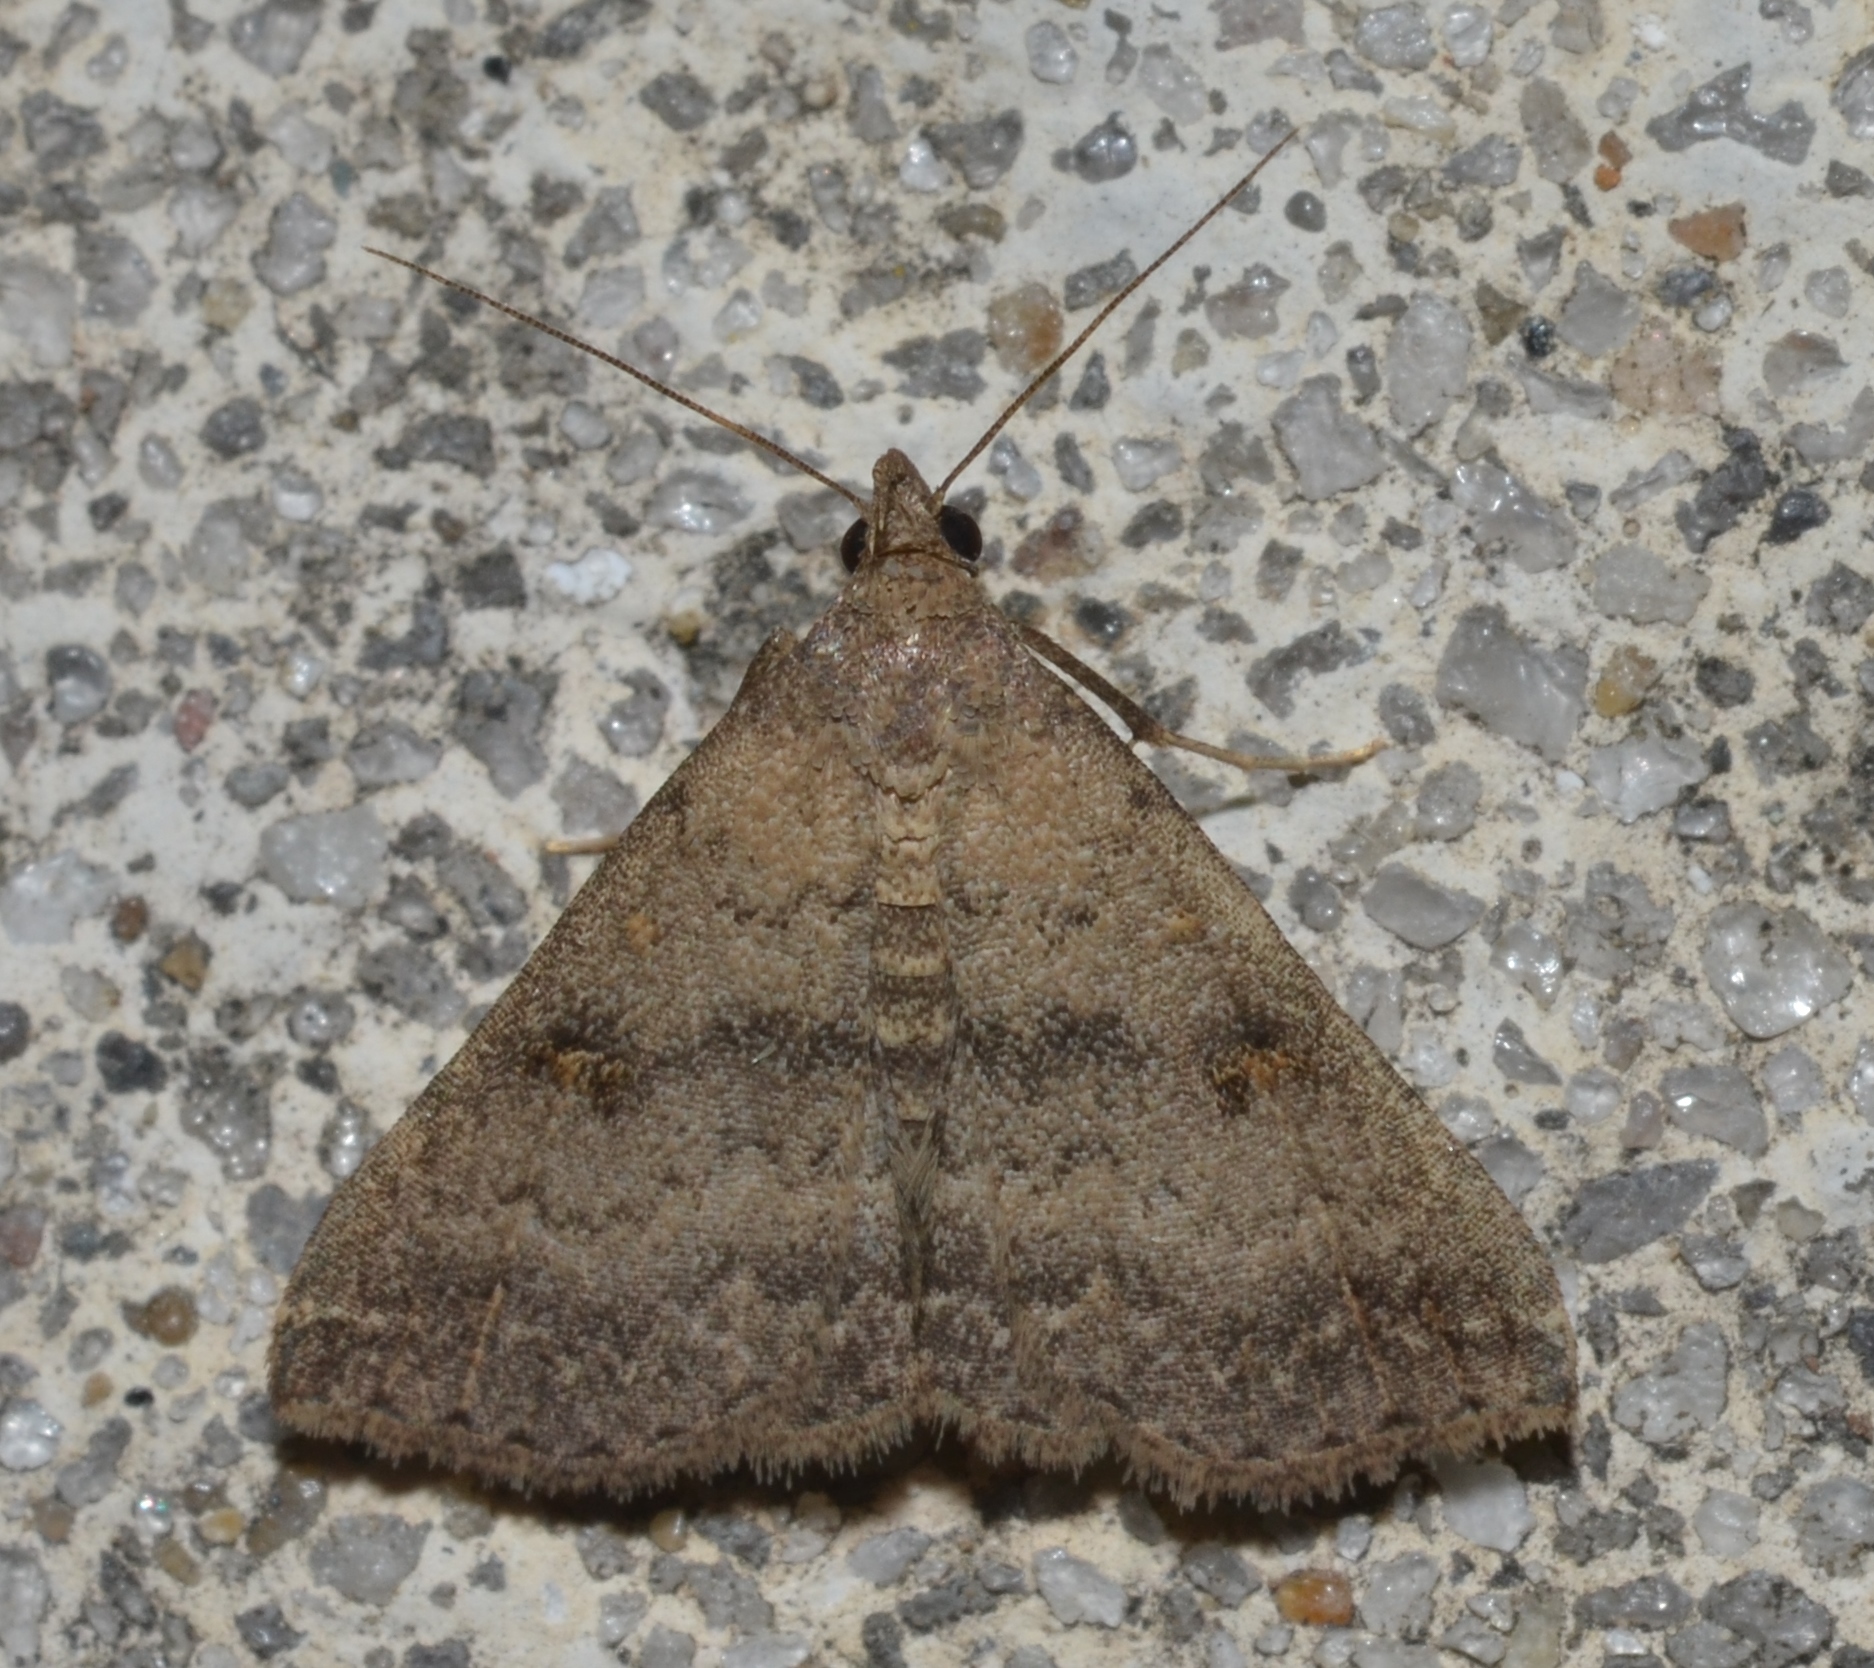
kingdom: Animalia
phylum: Arthropoda
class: Insecta
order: Lepidoptera
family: Erebidae
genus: Tetanolita
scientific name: Tetanolita floridana
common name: Florida tetanolita moth
